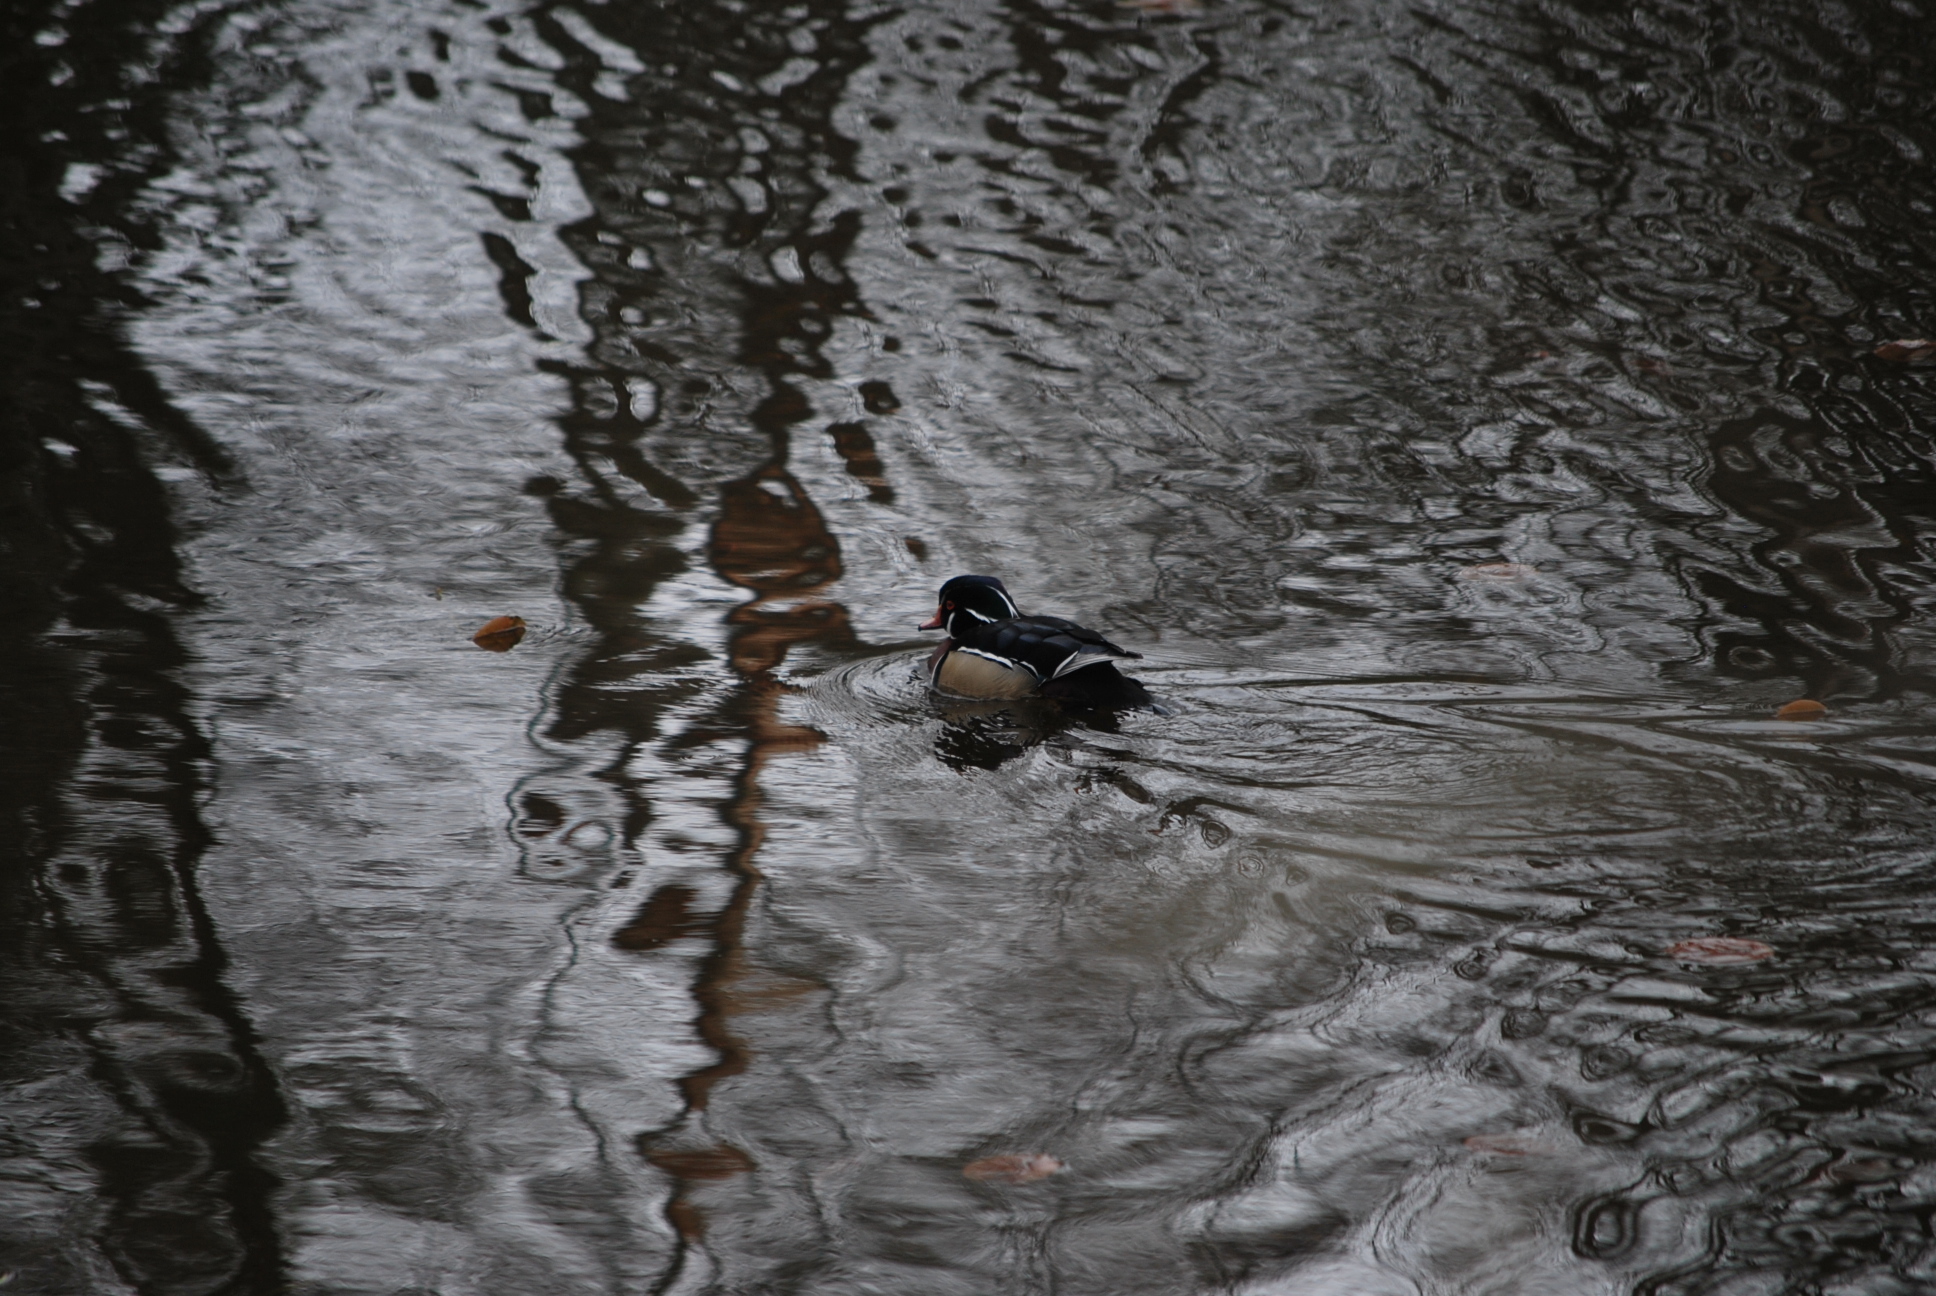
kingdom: Animalia
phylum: Chordata
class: Aves
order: Anseriformes
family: Anatidae
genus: Aix
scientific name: Aix sponsa
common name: Wood duck
